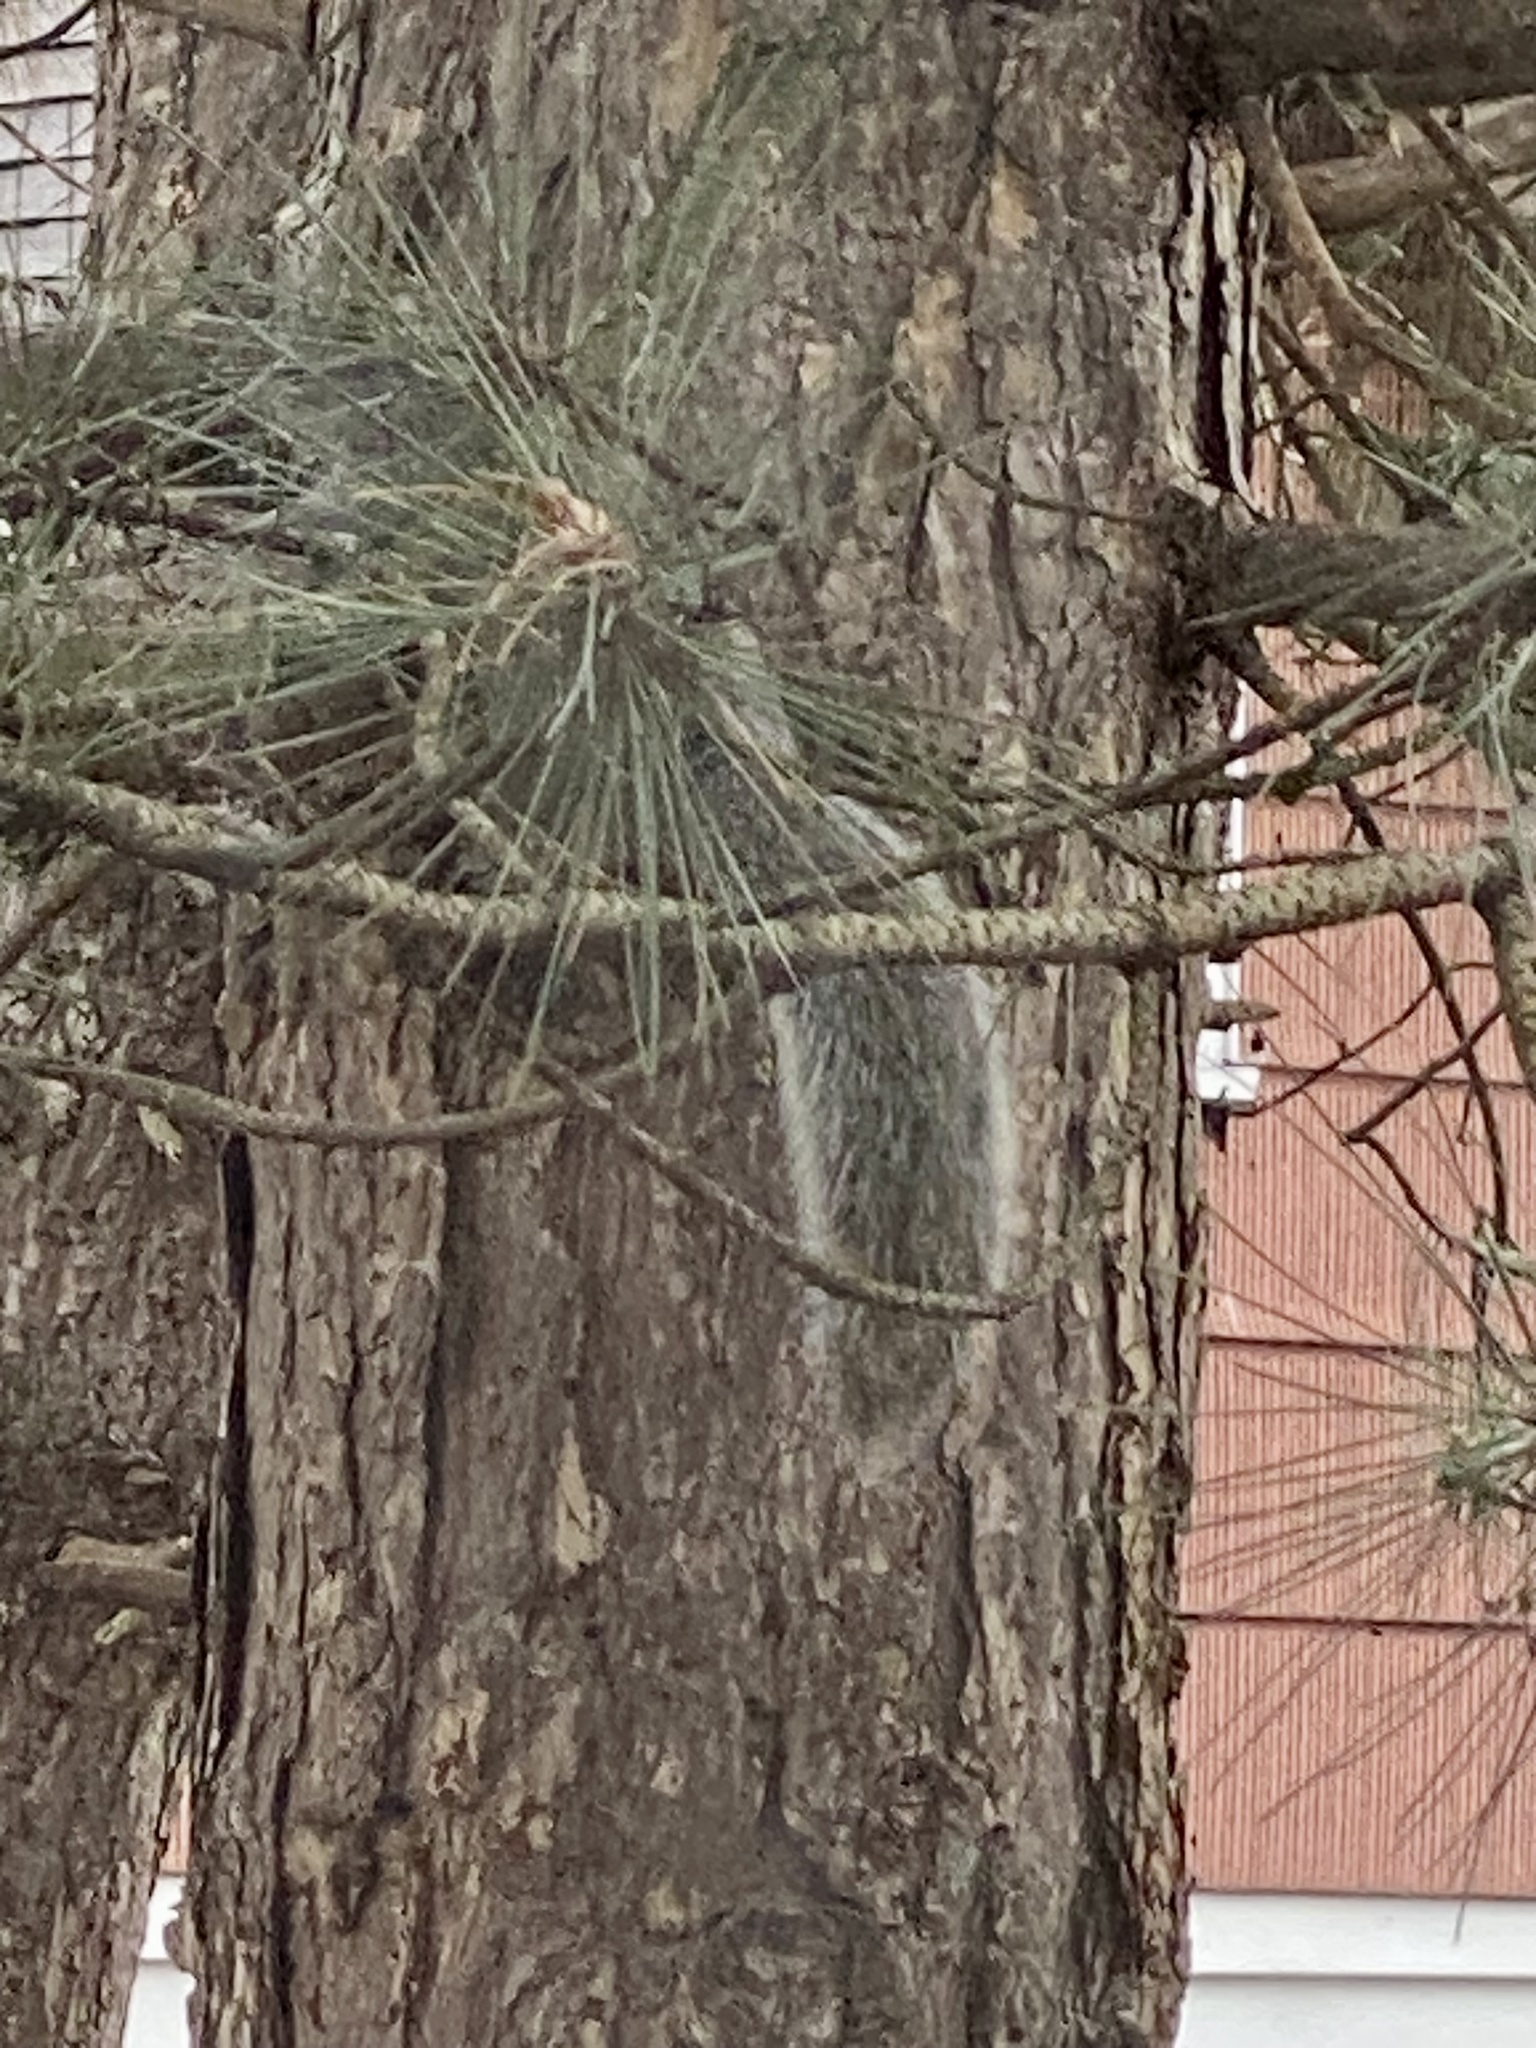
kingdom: Animalia
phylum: Chordata
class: Mammalia
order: Rodentia
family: Sciuridae
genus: Sciurus
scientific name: Sciurus carolinensis
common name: Eastern gray squirrel
